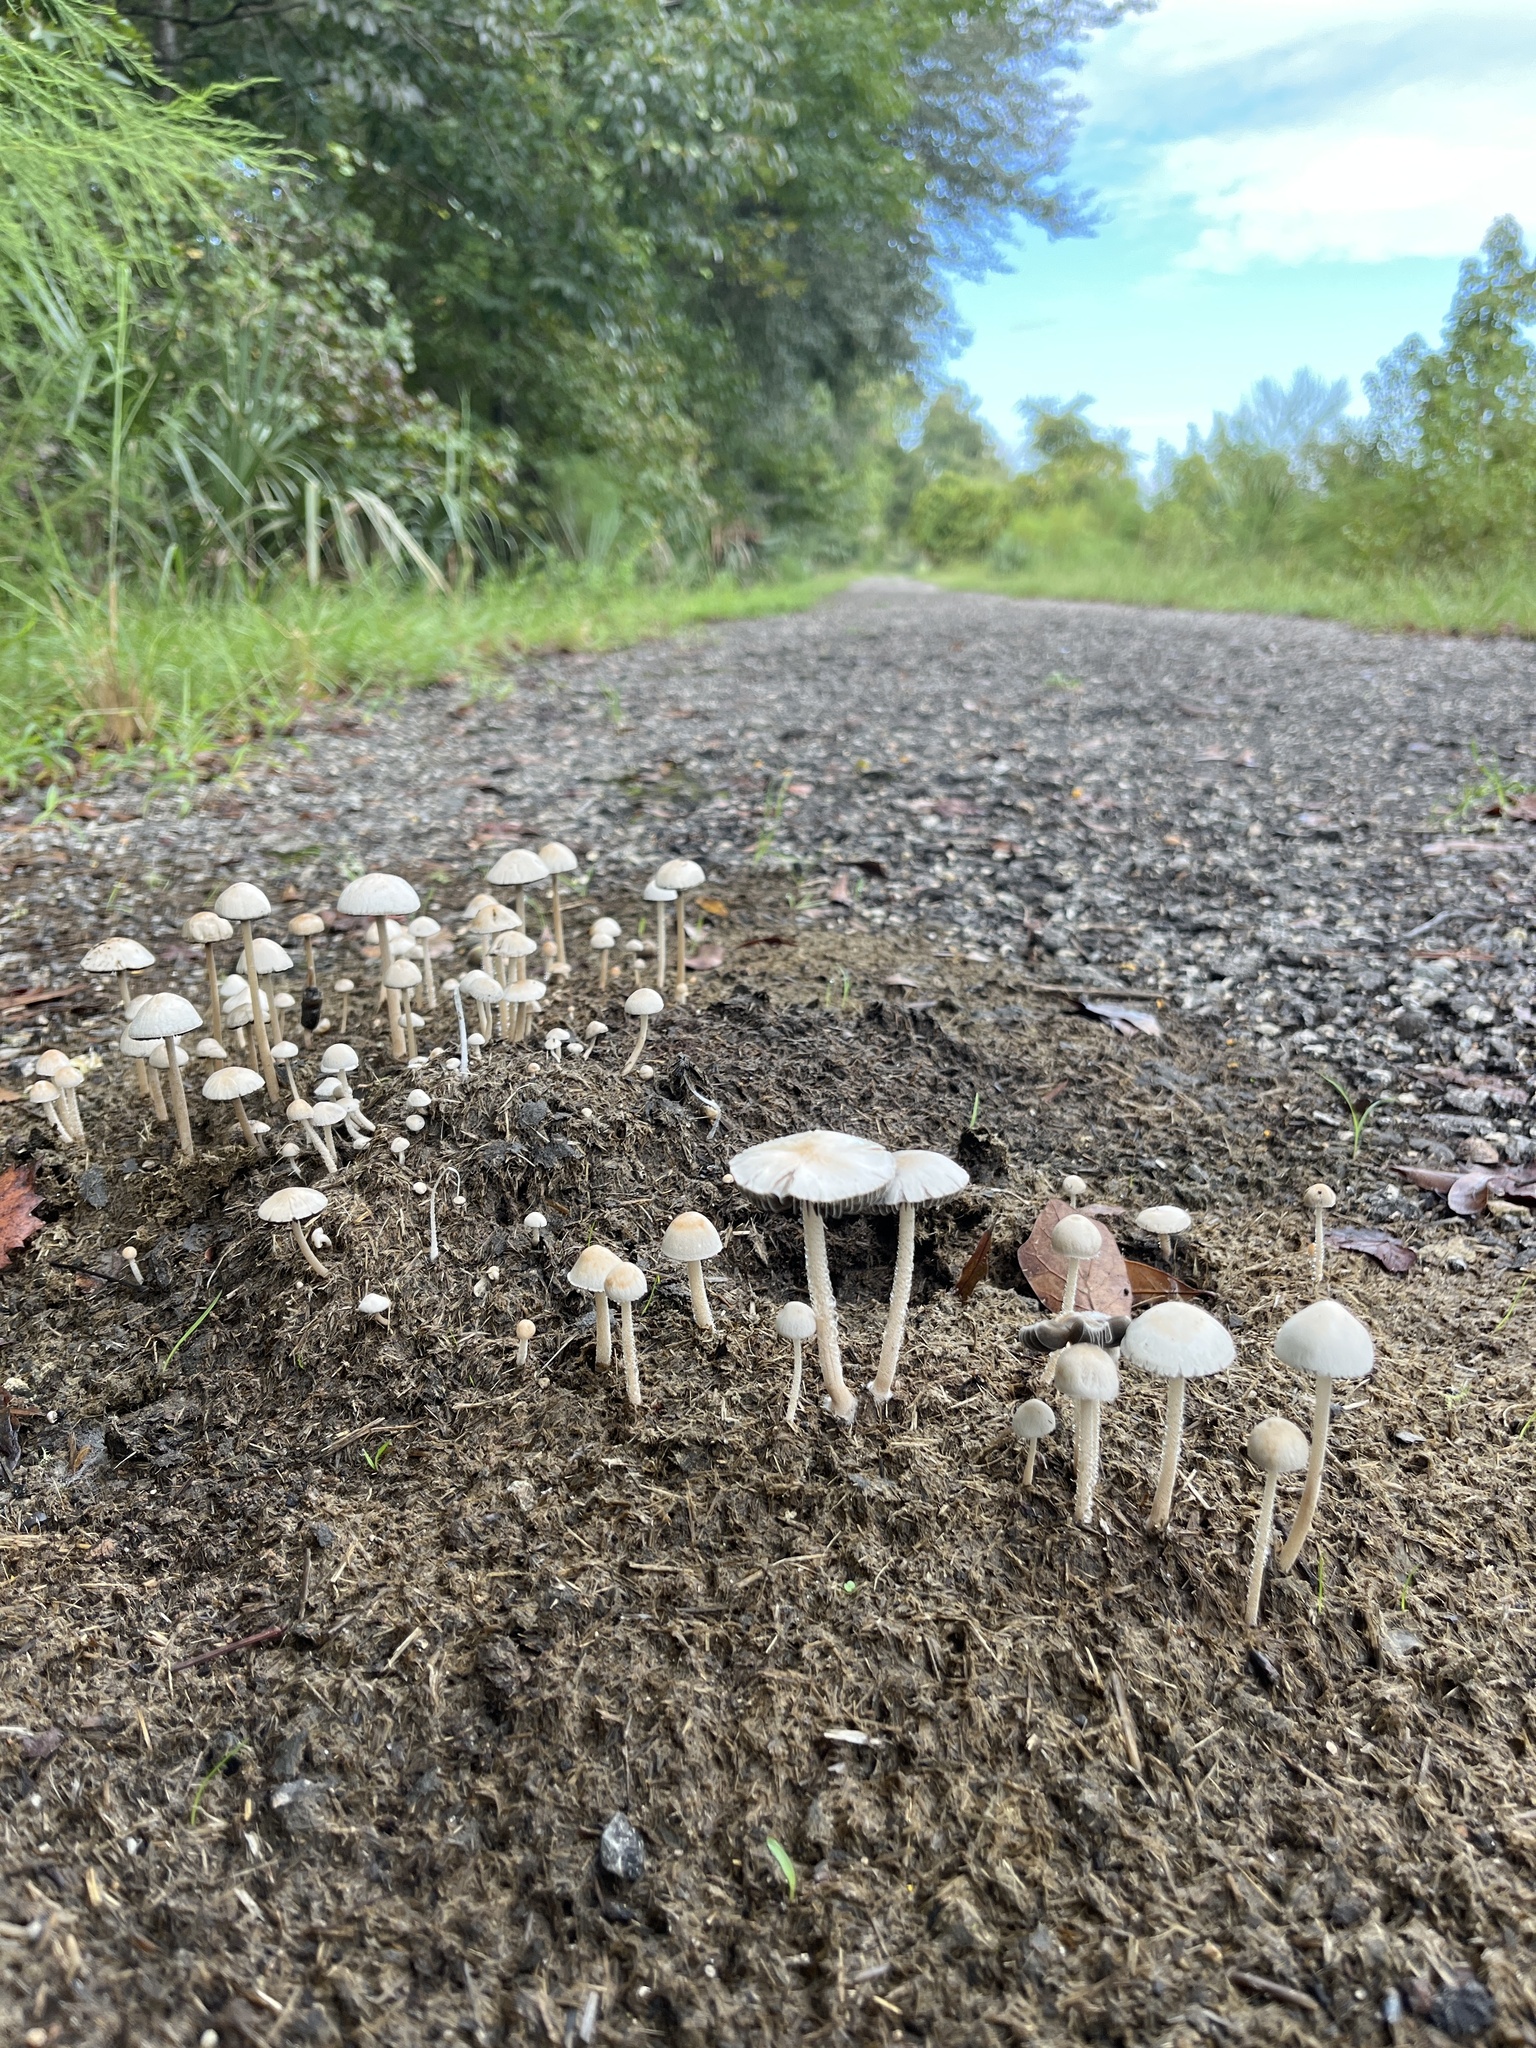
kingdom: Fungi
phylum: Basidiomycota
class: Agaricomycetes
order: Agaricales
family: Bolbitiaceae
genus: Panaeolus
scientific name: Panaeolus antillarum
